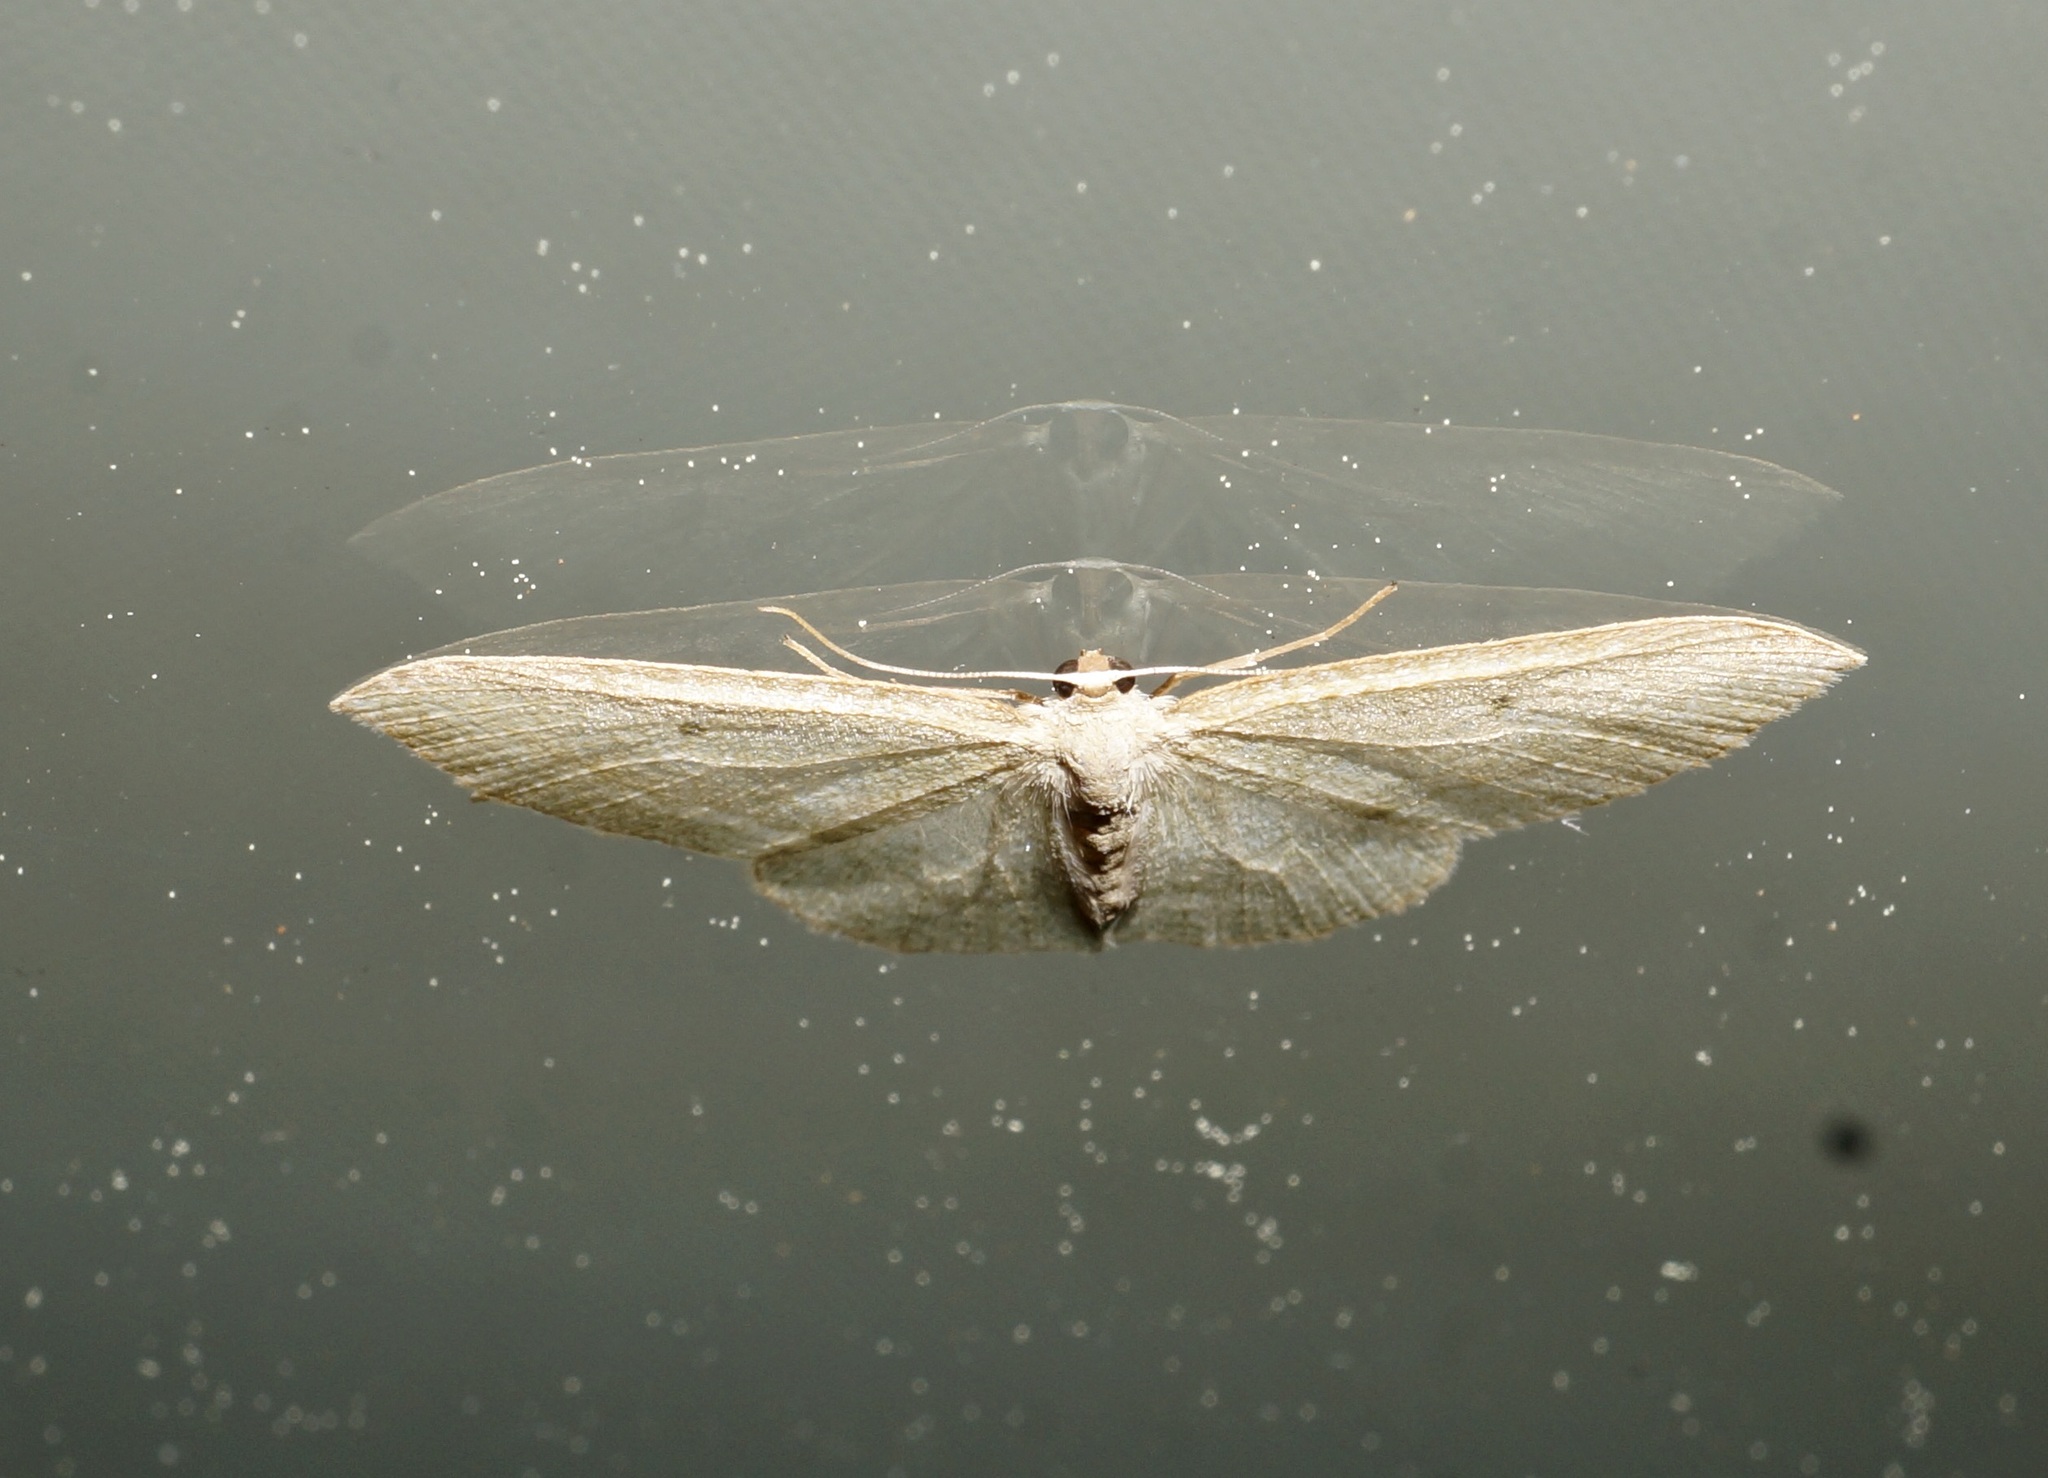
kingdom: Animalia
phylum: Arthropoda
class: Insecta
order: Lepidoptera
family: Geometridae
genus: Poecilasthena
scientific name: Poecilasthena pulchraria
